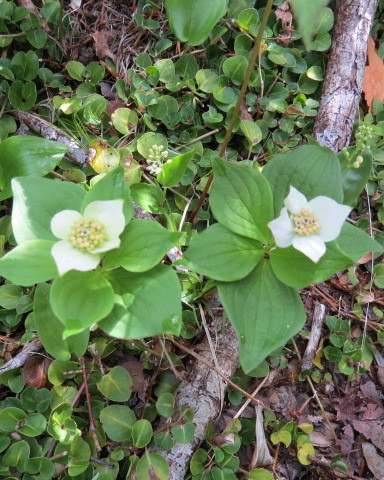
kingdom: Plantae
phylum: Tracheophyta
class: Magnoliopsida
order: Cornales
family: Cornaceae
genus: Cornus
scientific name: Cornus canadensis
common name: Creeping dogwood
